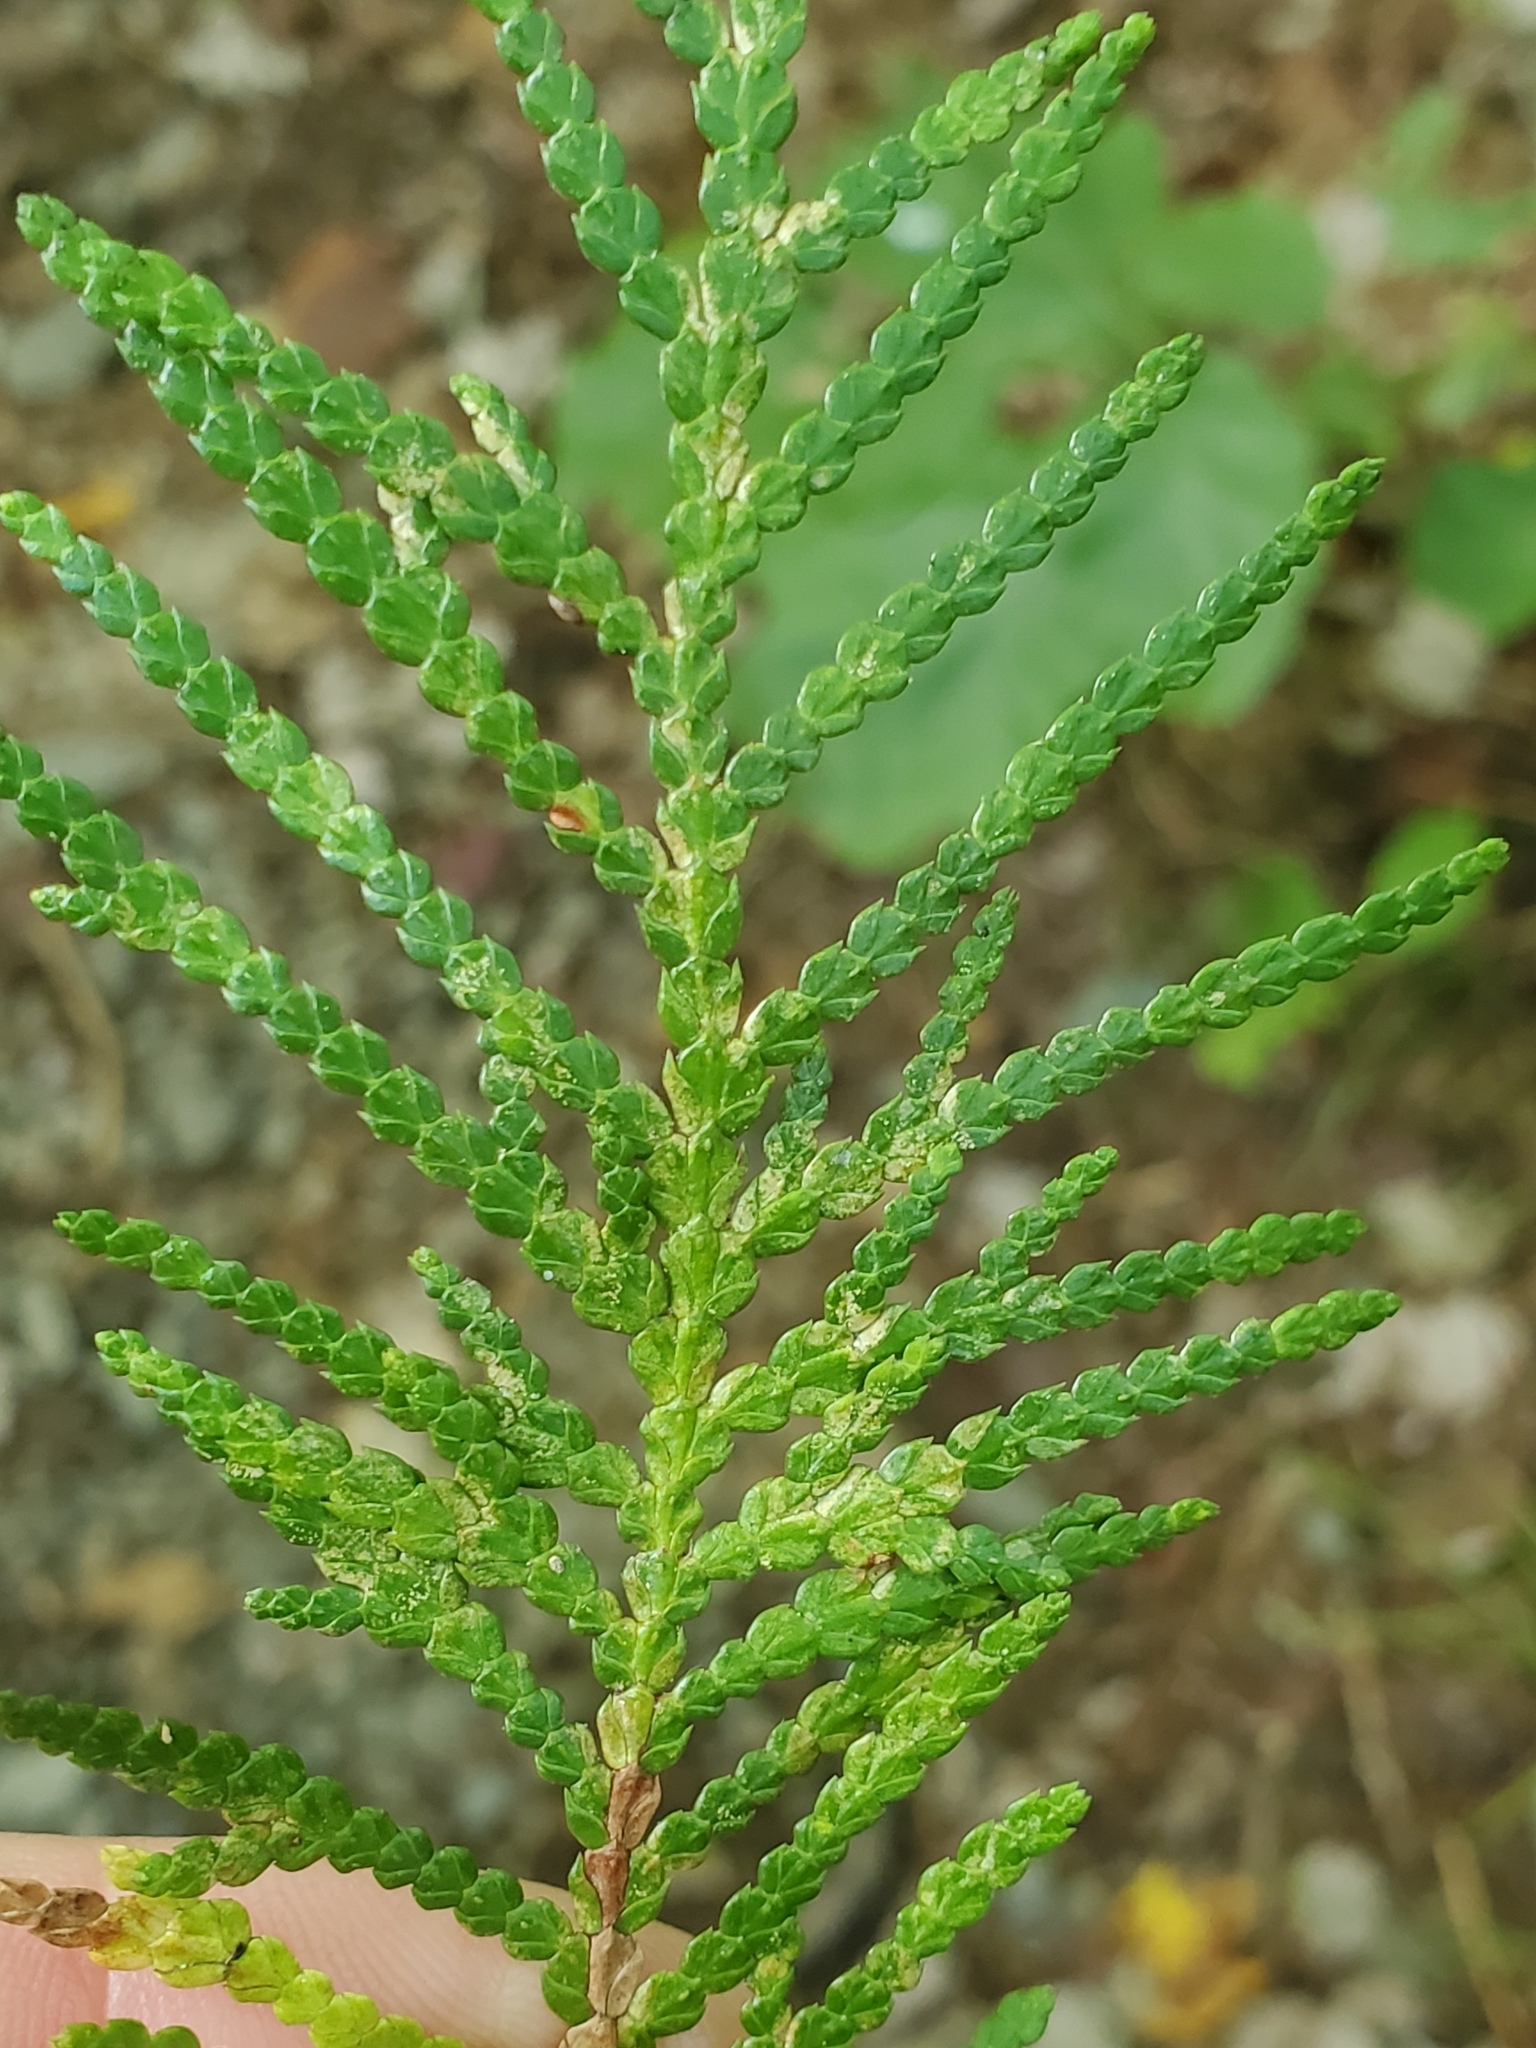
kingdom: Plantae
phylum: Tracheophyta
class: Pinopsida
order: Pinales
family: Cupressaceae
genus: Thuja
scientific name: Thuja occidentalis
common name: Northern white-cedar
